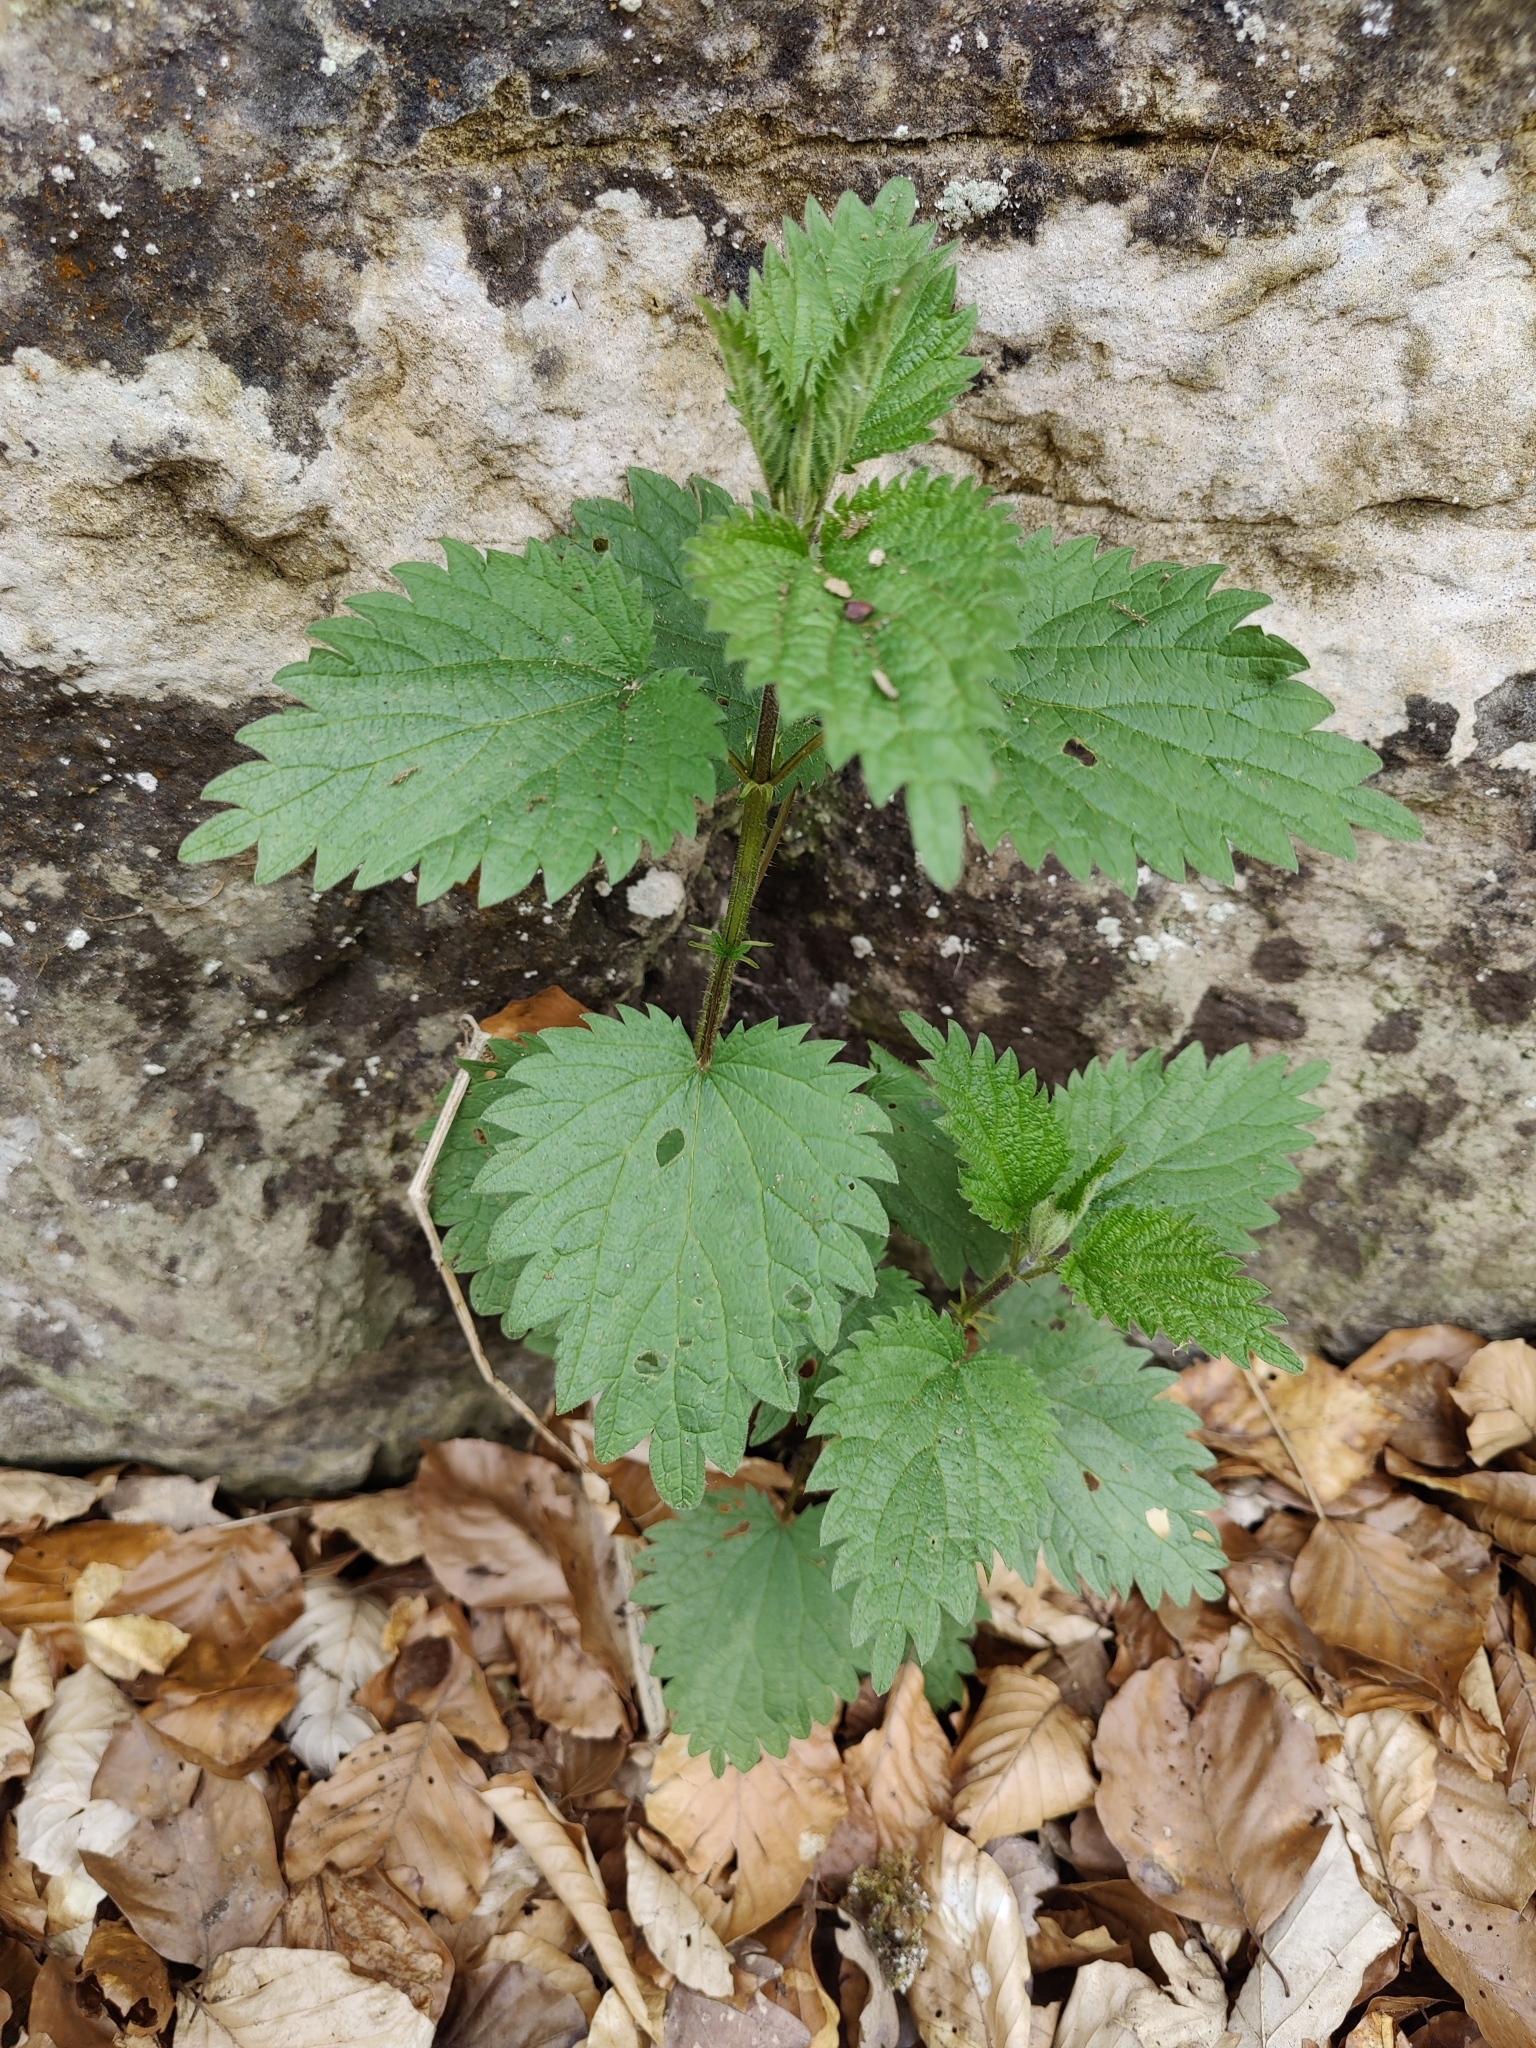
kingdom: Plantae
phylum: Tracheophyta
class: Magnoliopsida
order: Rosales
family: Urticaceae
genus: Urtica
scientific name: Urtica dioica
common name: Common nettle
